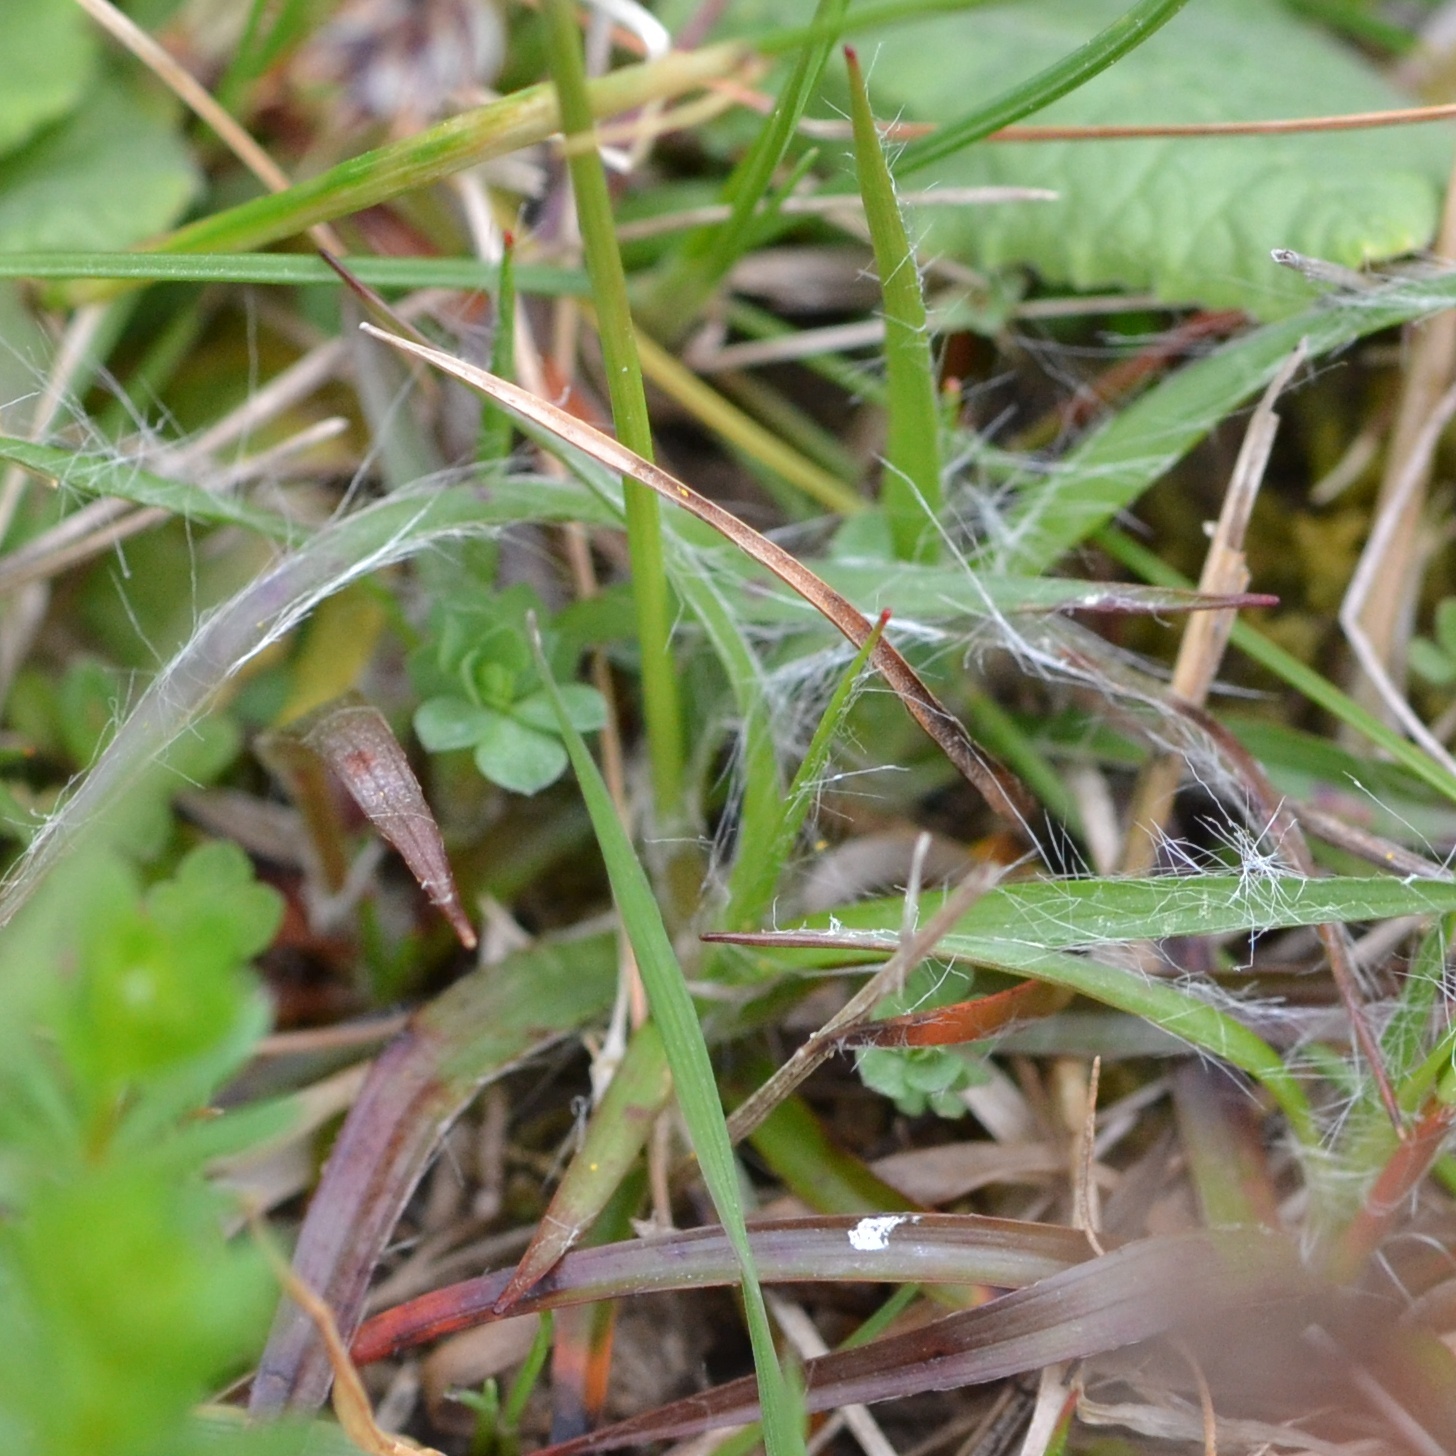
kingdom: Plantae
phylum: Tracheophyta
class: Liliopsida
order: Poales
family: Juncaceae
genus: Luzula
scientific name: Luzula campestris
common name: Field wood-rush
